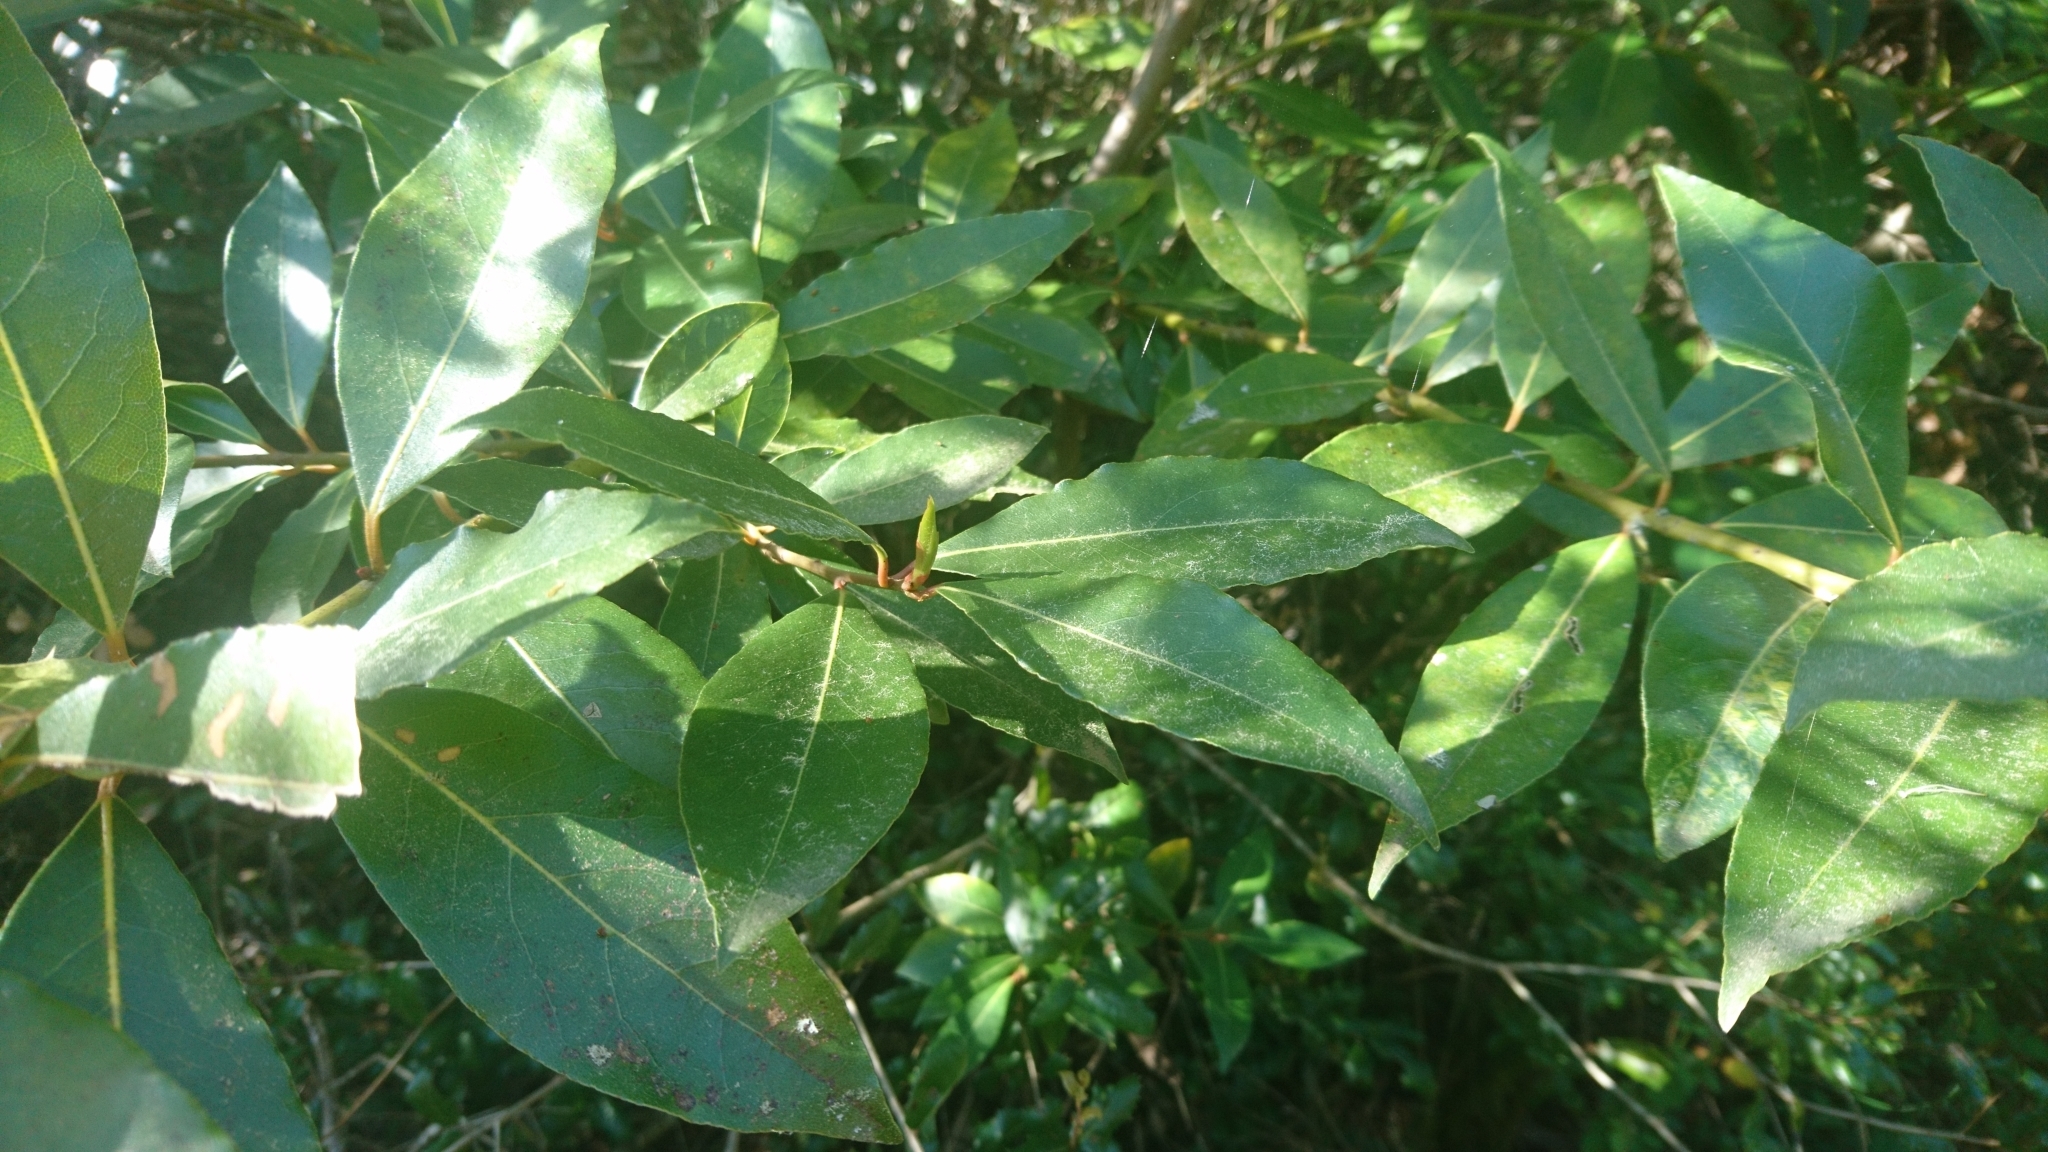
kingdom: Plantae
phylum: Tracheophyta
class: Magnoliopsida
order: Laurales
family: Lauraceae
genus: Laurus
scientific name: Laurus nobilis
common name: Bay
